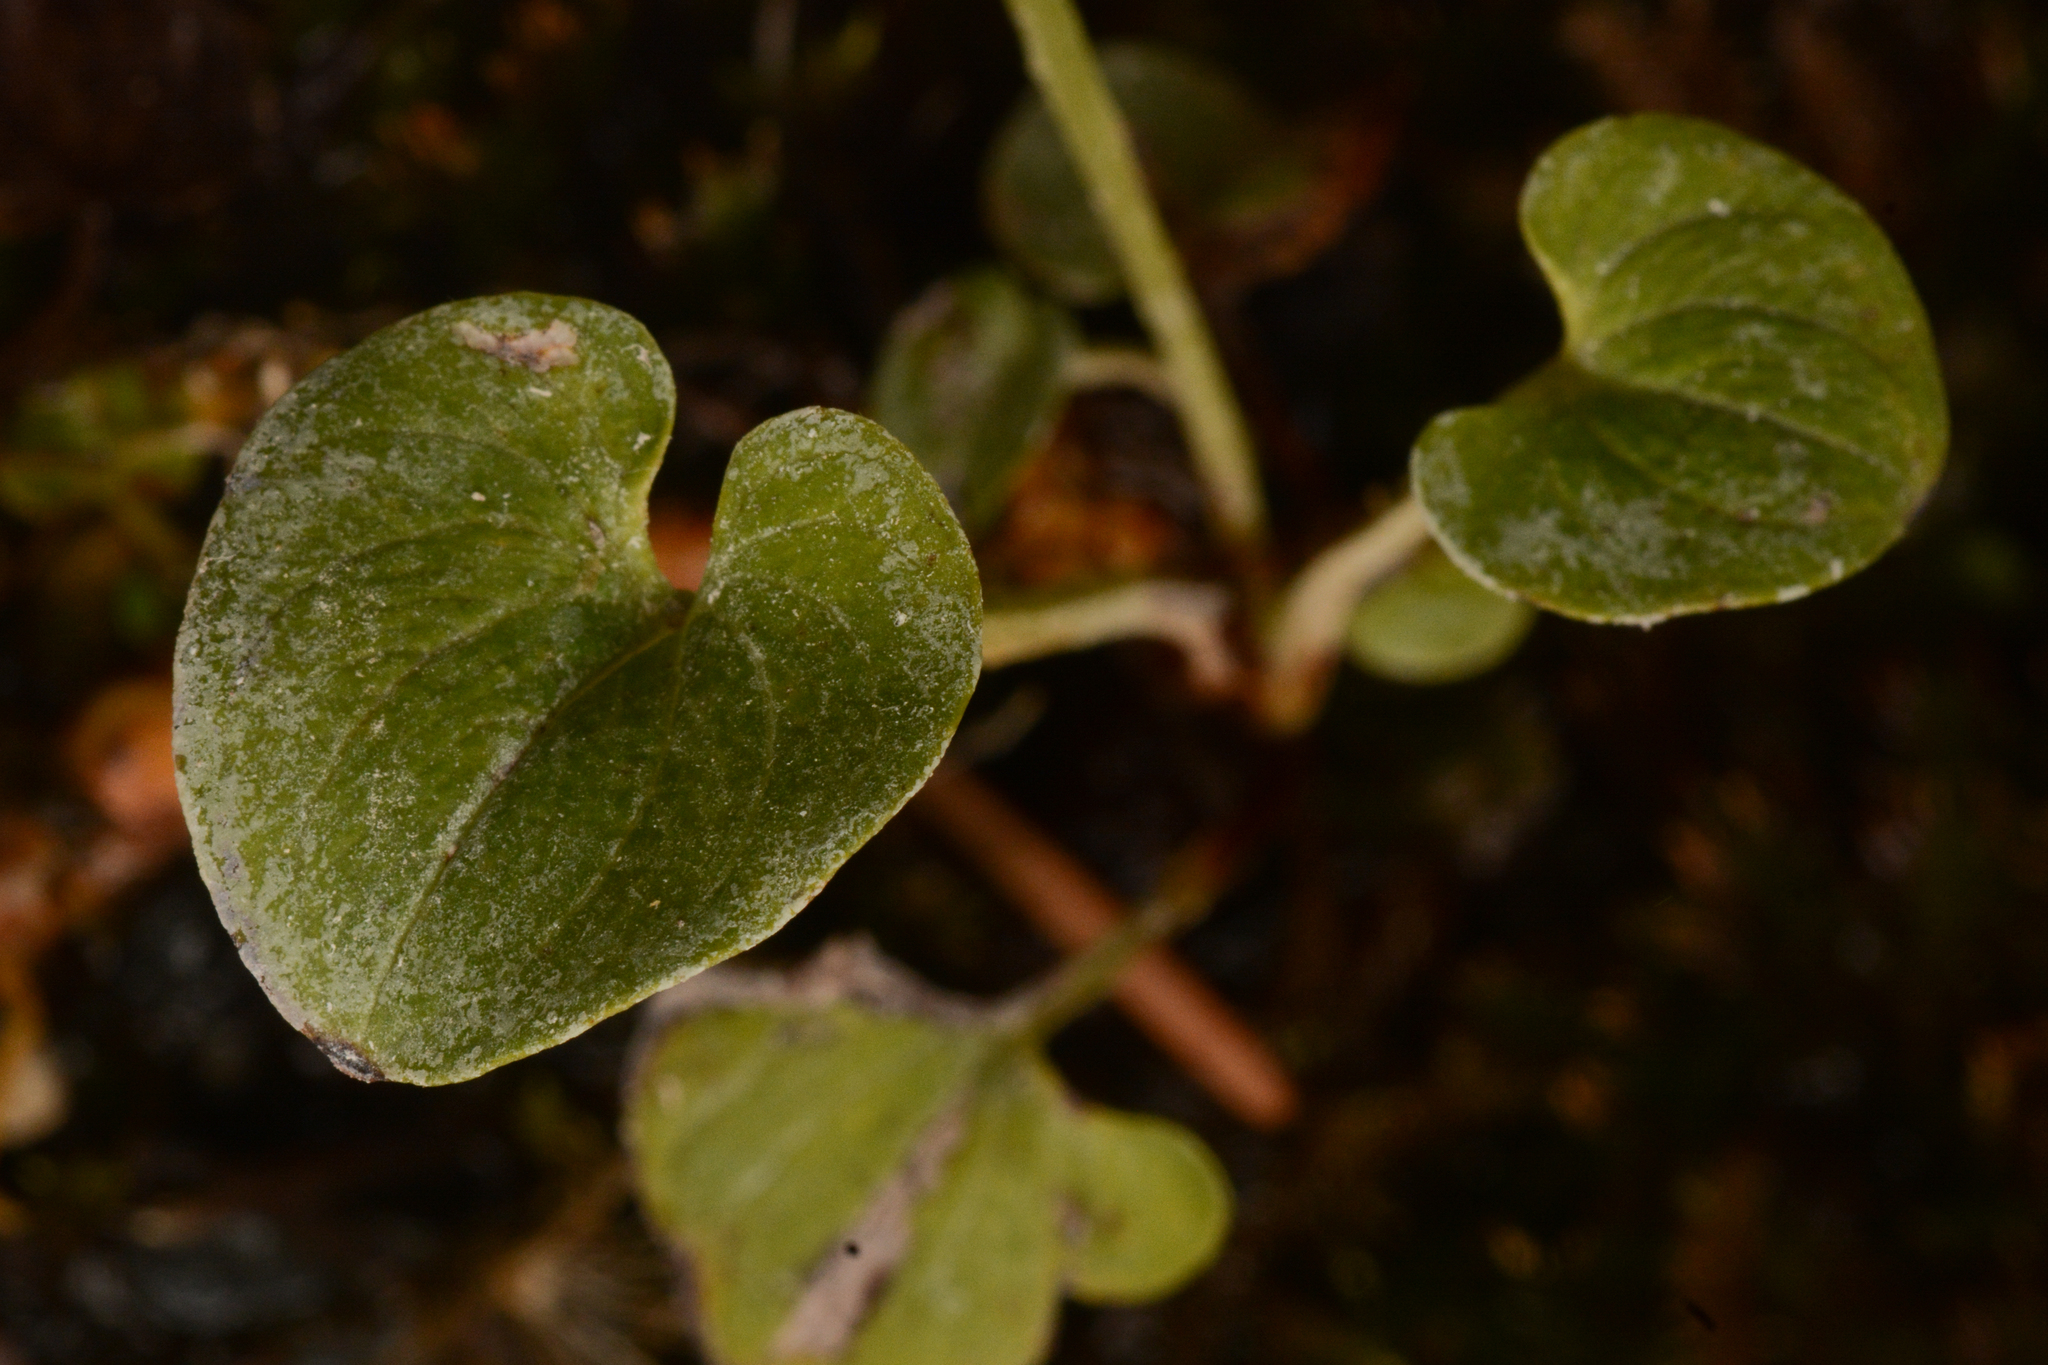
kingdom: Plantae
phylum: Tracheophyta
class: Magnoliopsida
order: Celastrales
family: Parnassiaceae
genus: Parnassia
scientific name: Parnassia fimbriata
